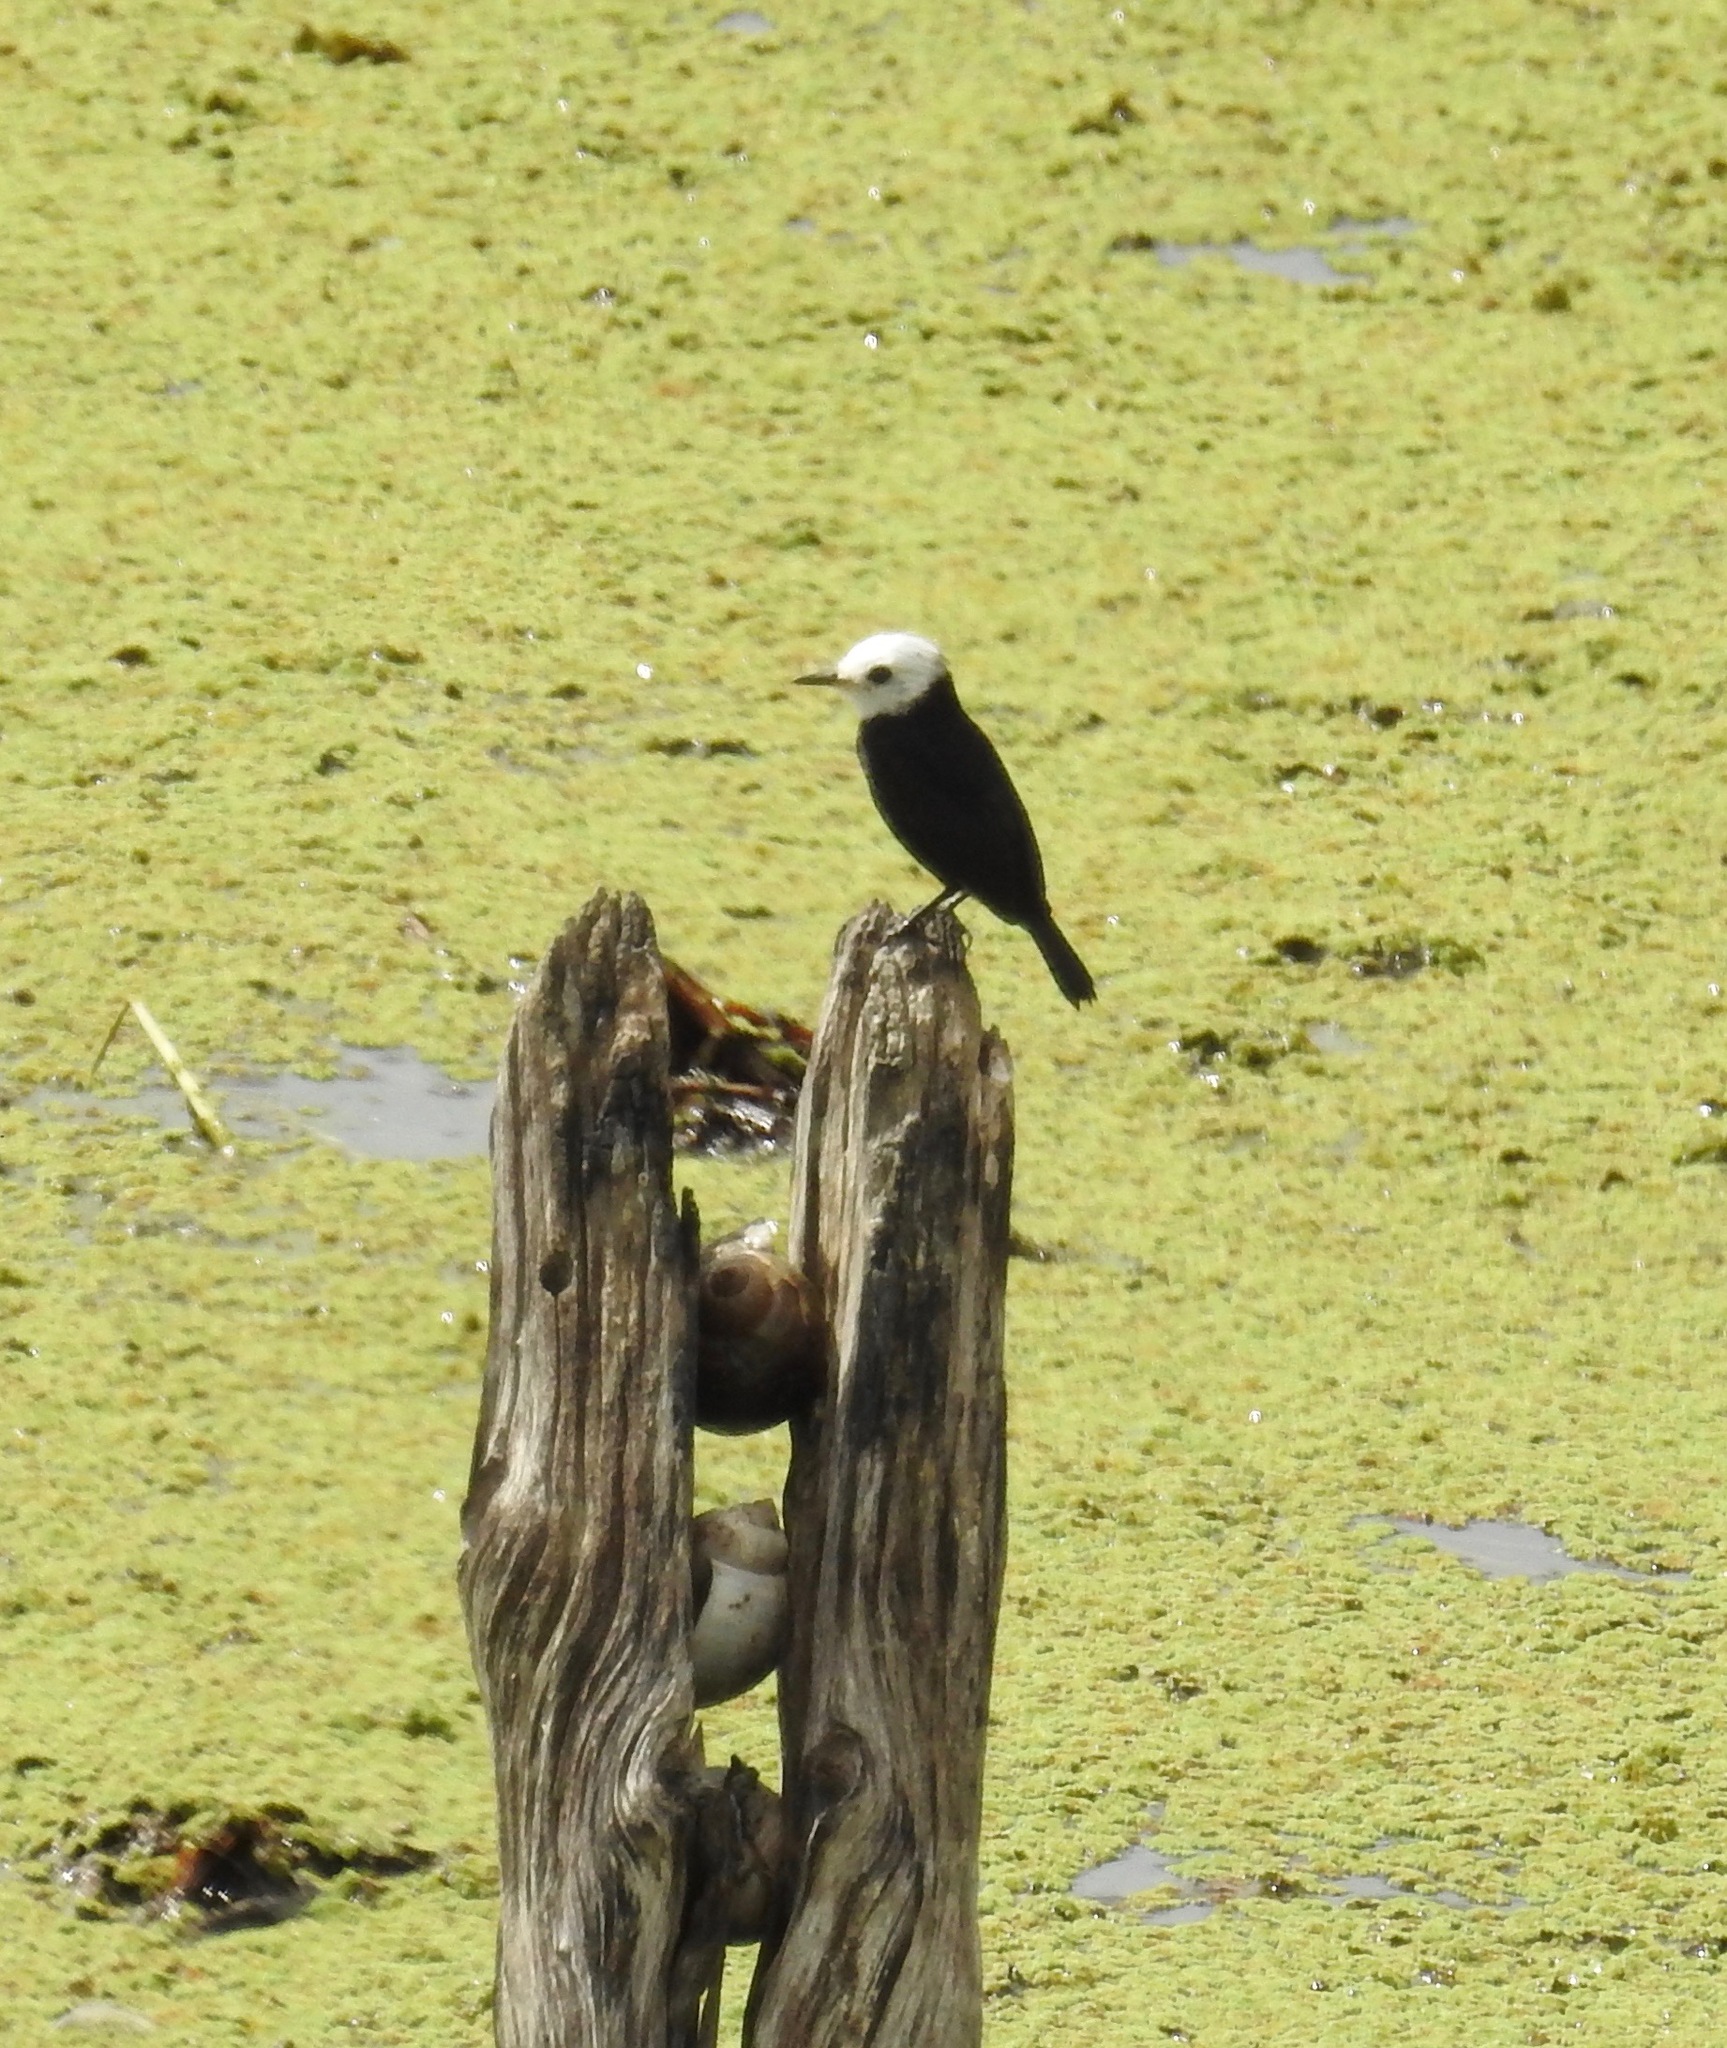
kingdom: Animalia
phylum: Chordata
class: Aves
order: Passeriformes
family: Tyrannidae
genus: Arundinicola
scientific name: Arundinicola leucocephala
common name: White-headed marsh tyrant
